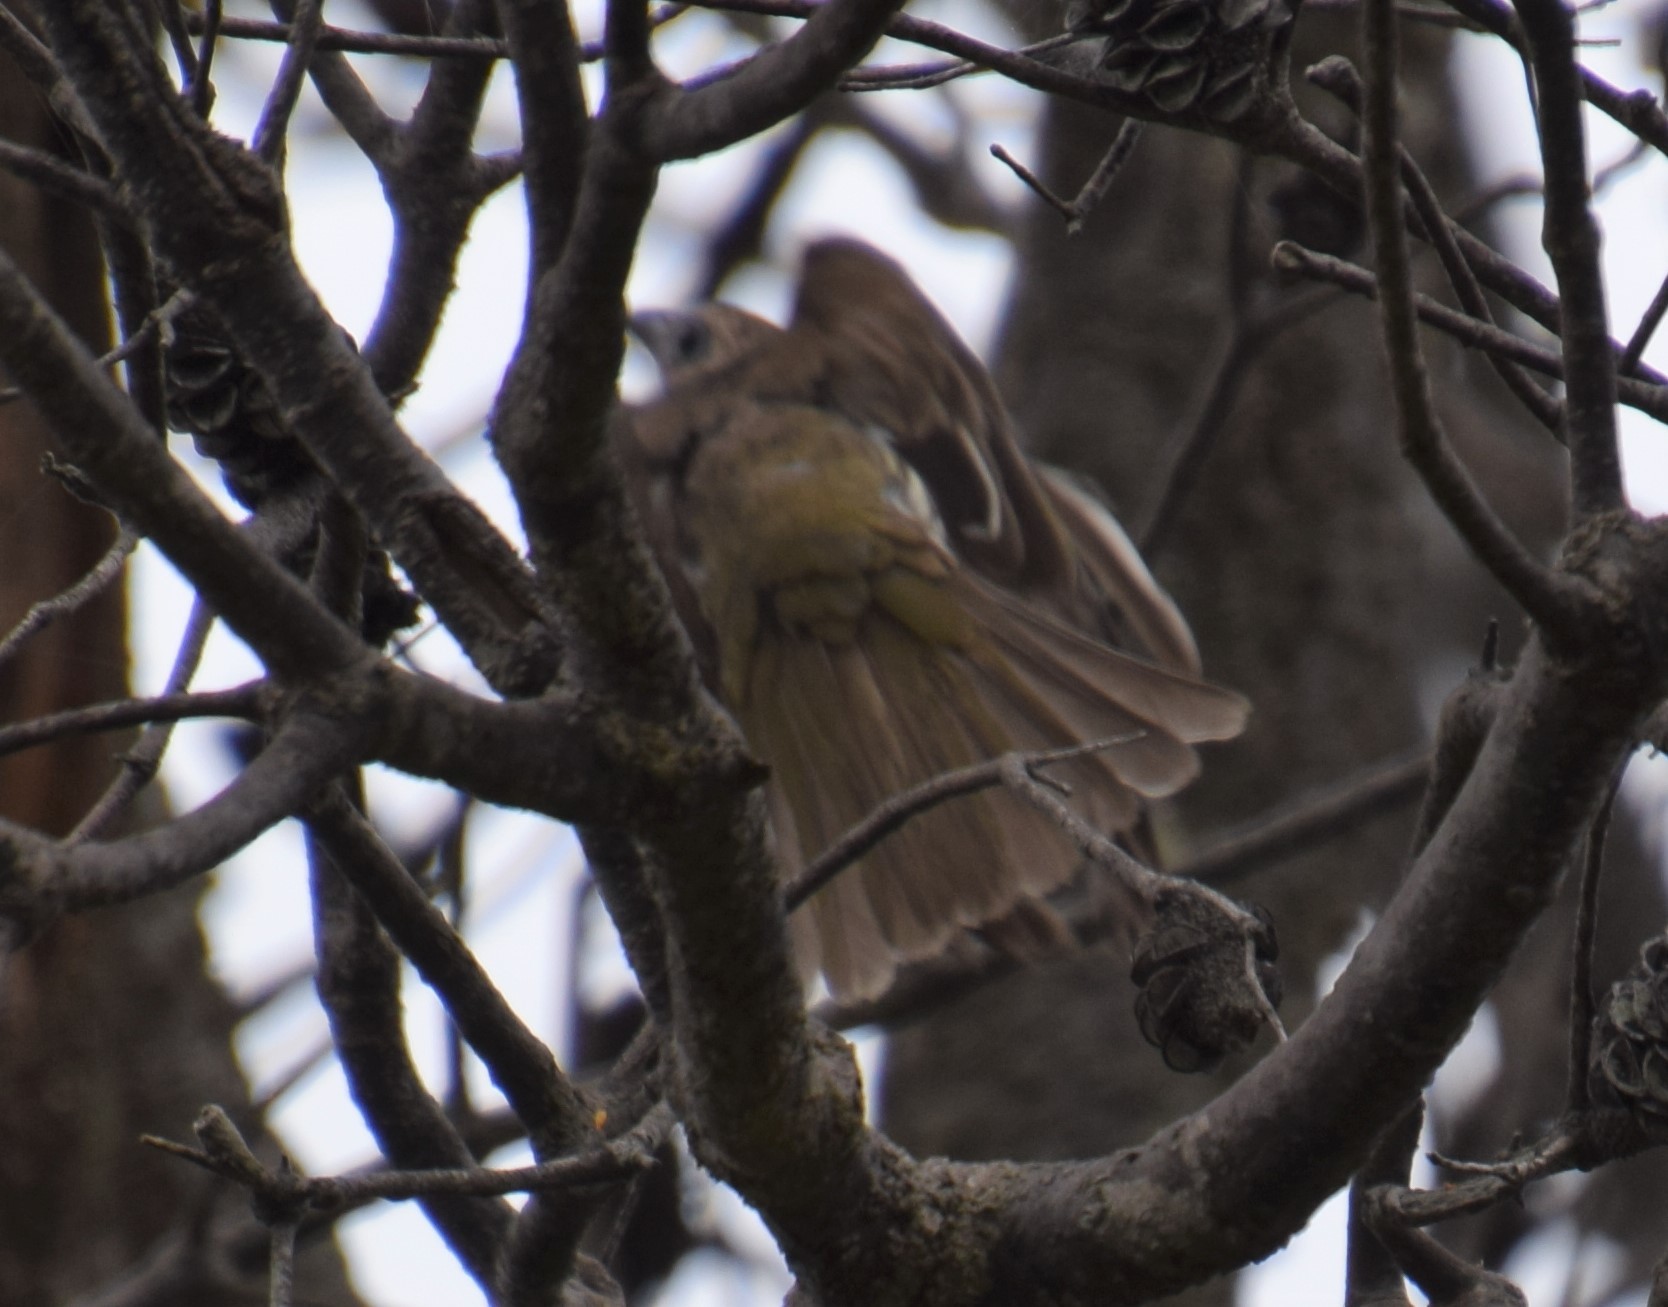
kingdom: Animalia
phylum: Chordata
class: Aves
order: Passeriformes
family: Oriolidae
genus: Sphecotheres
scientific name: Sphecotheres vieilloti
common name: Australasian figbird
